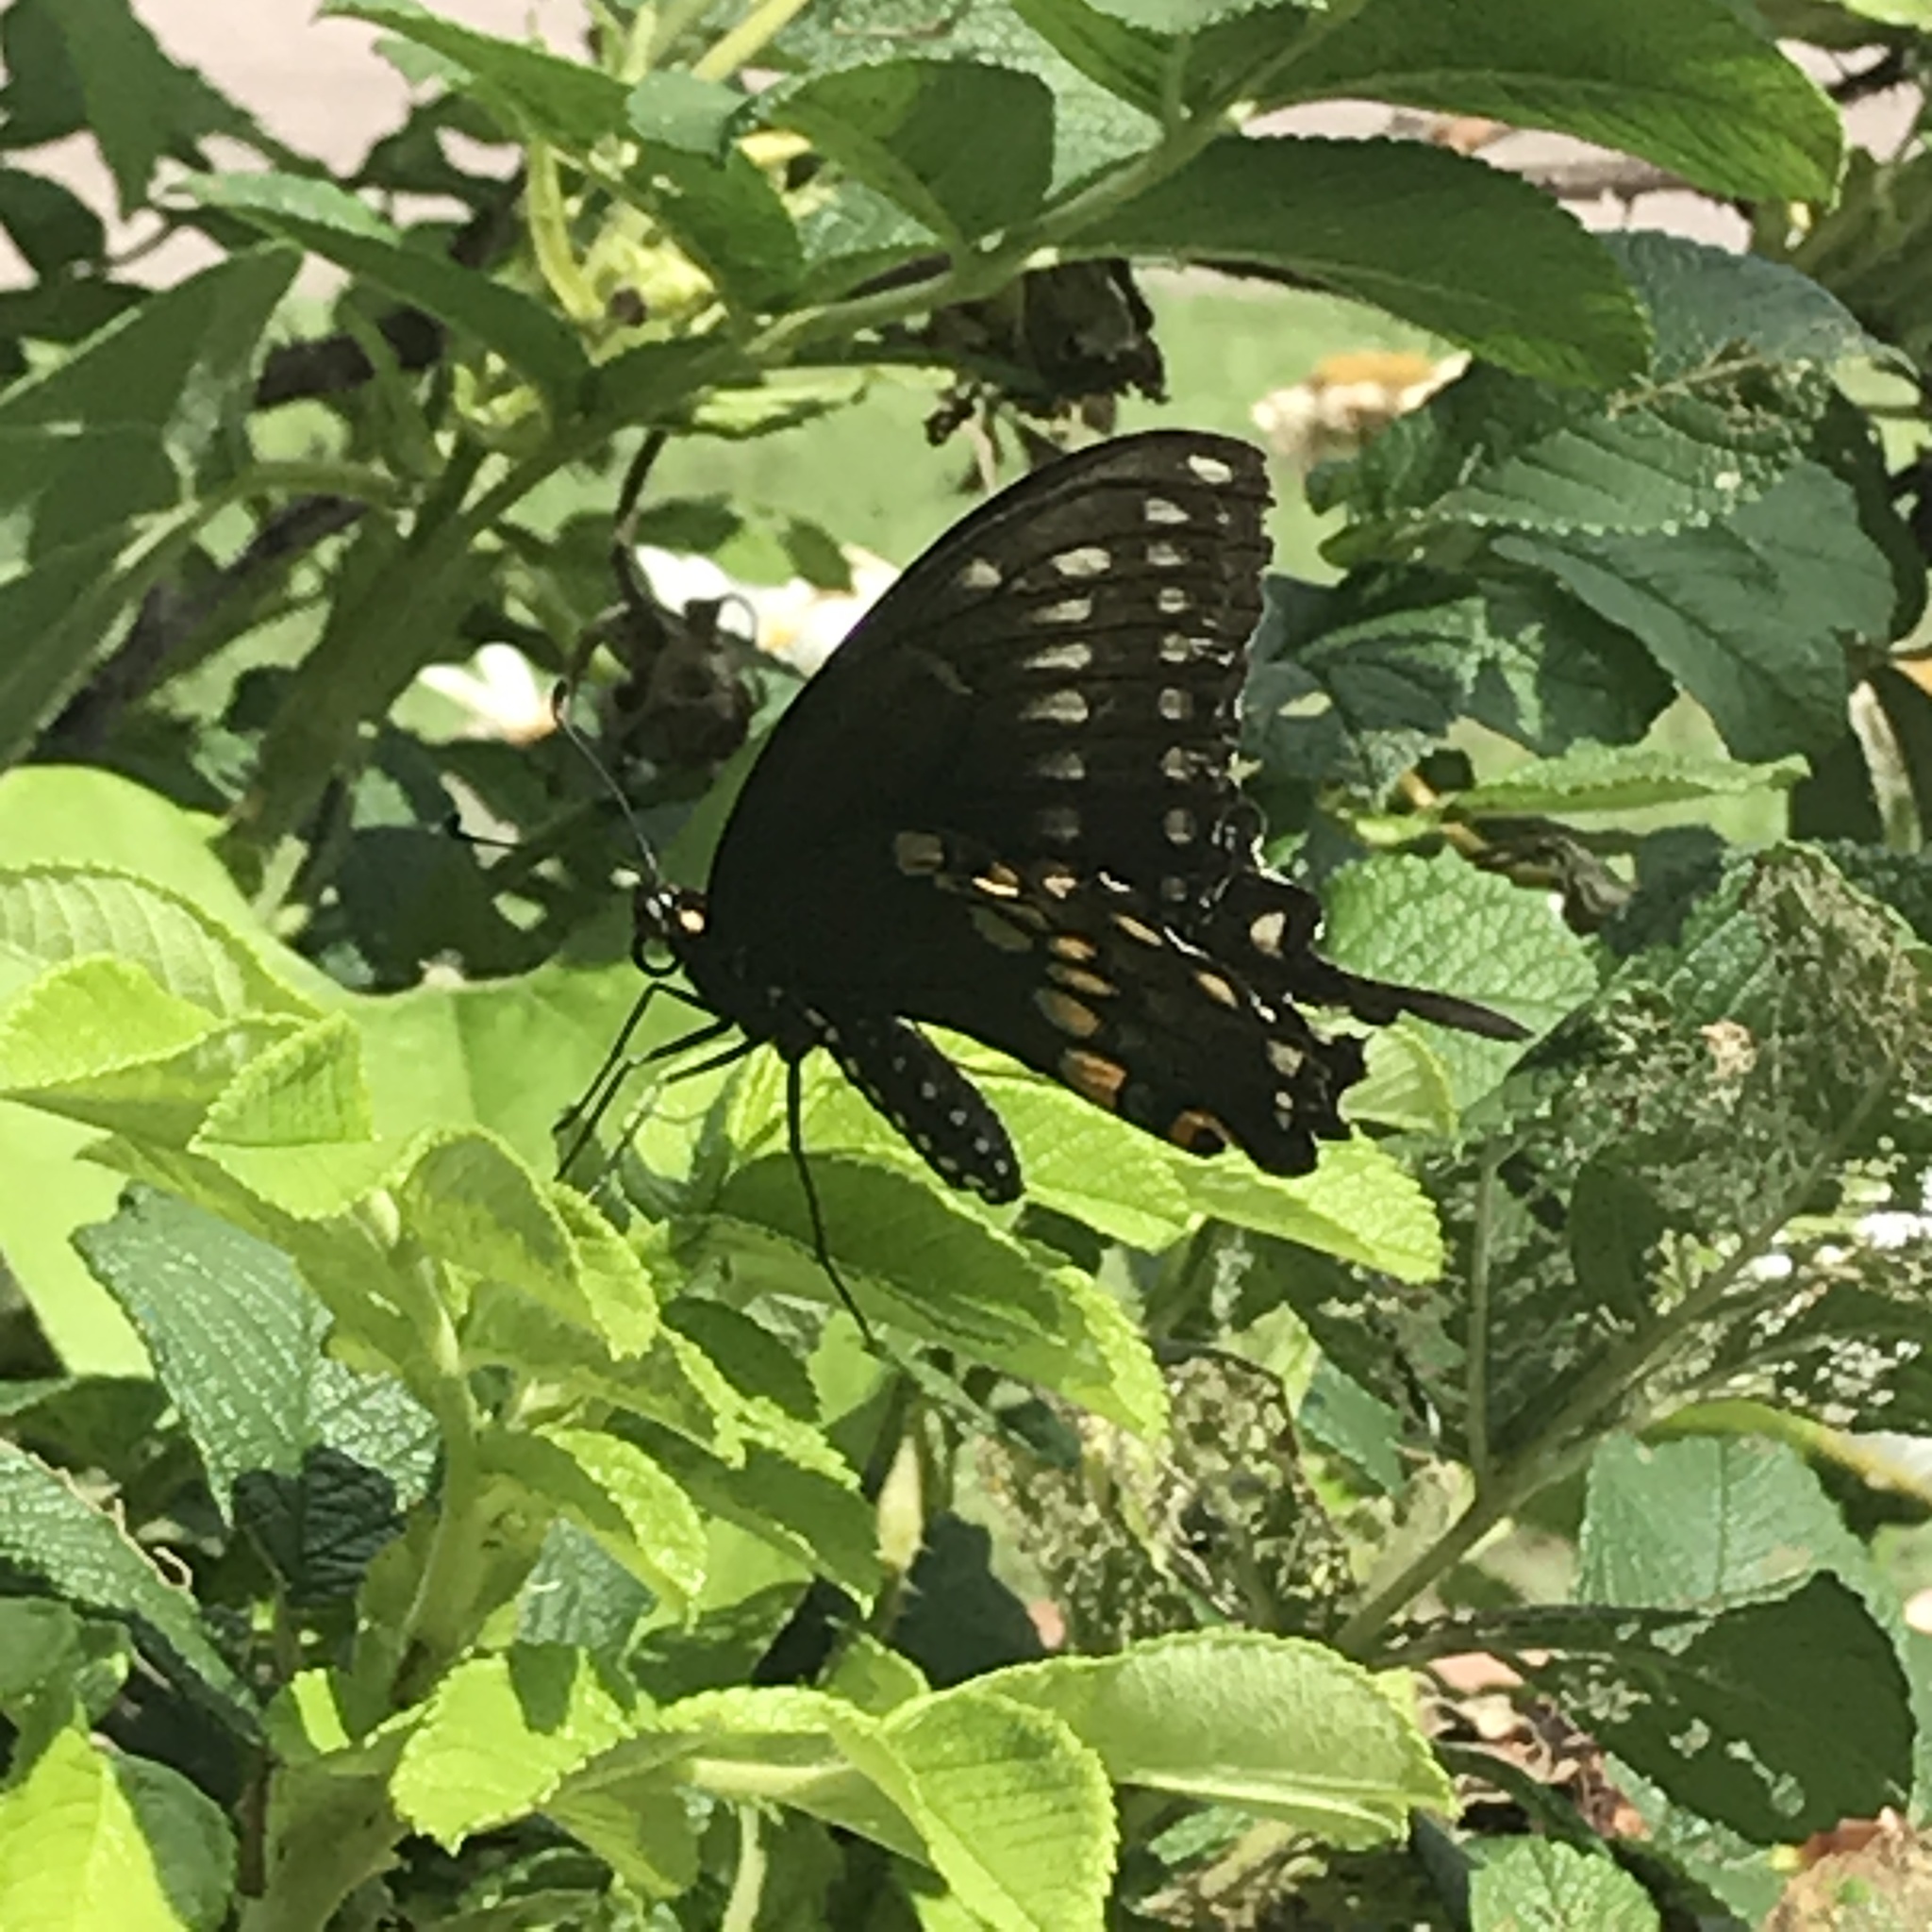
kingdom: Animalia
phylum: Arthropoda
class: Insecta
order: Lepidoptera
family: Papilionidae
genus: Papilio
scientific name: Papilio polyxenes
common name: Black swallowtail
